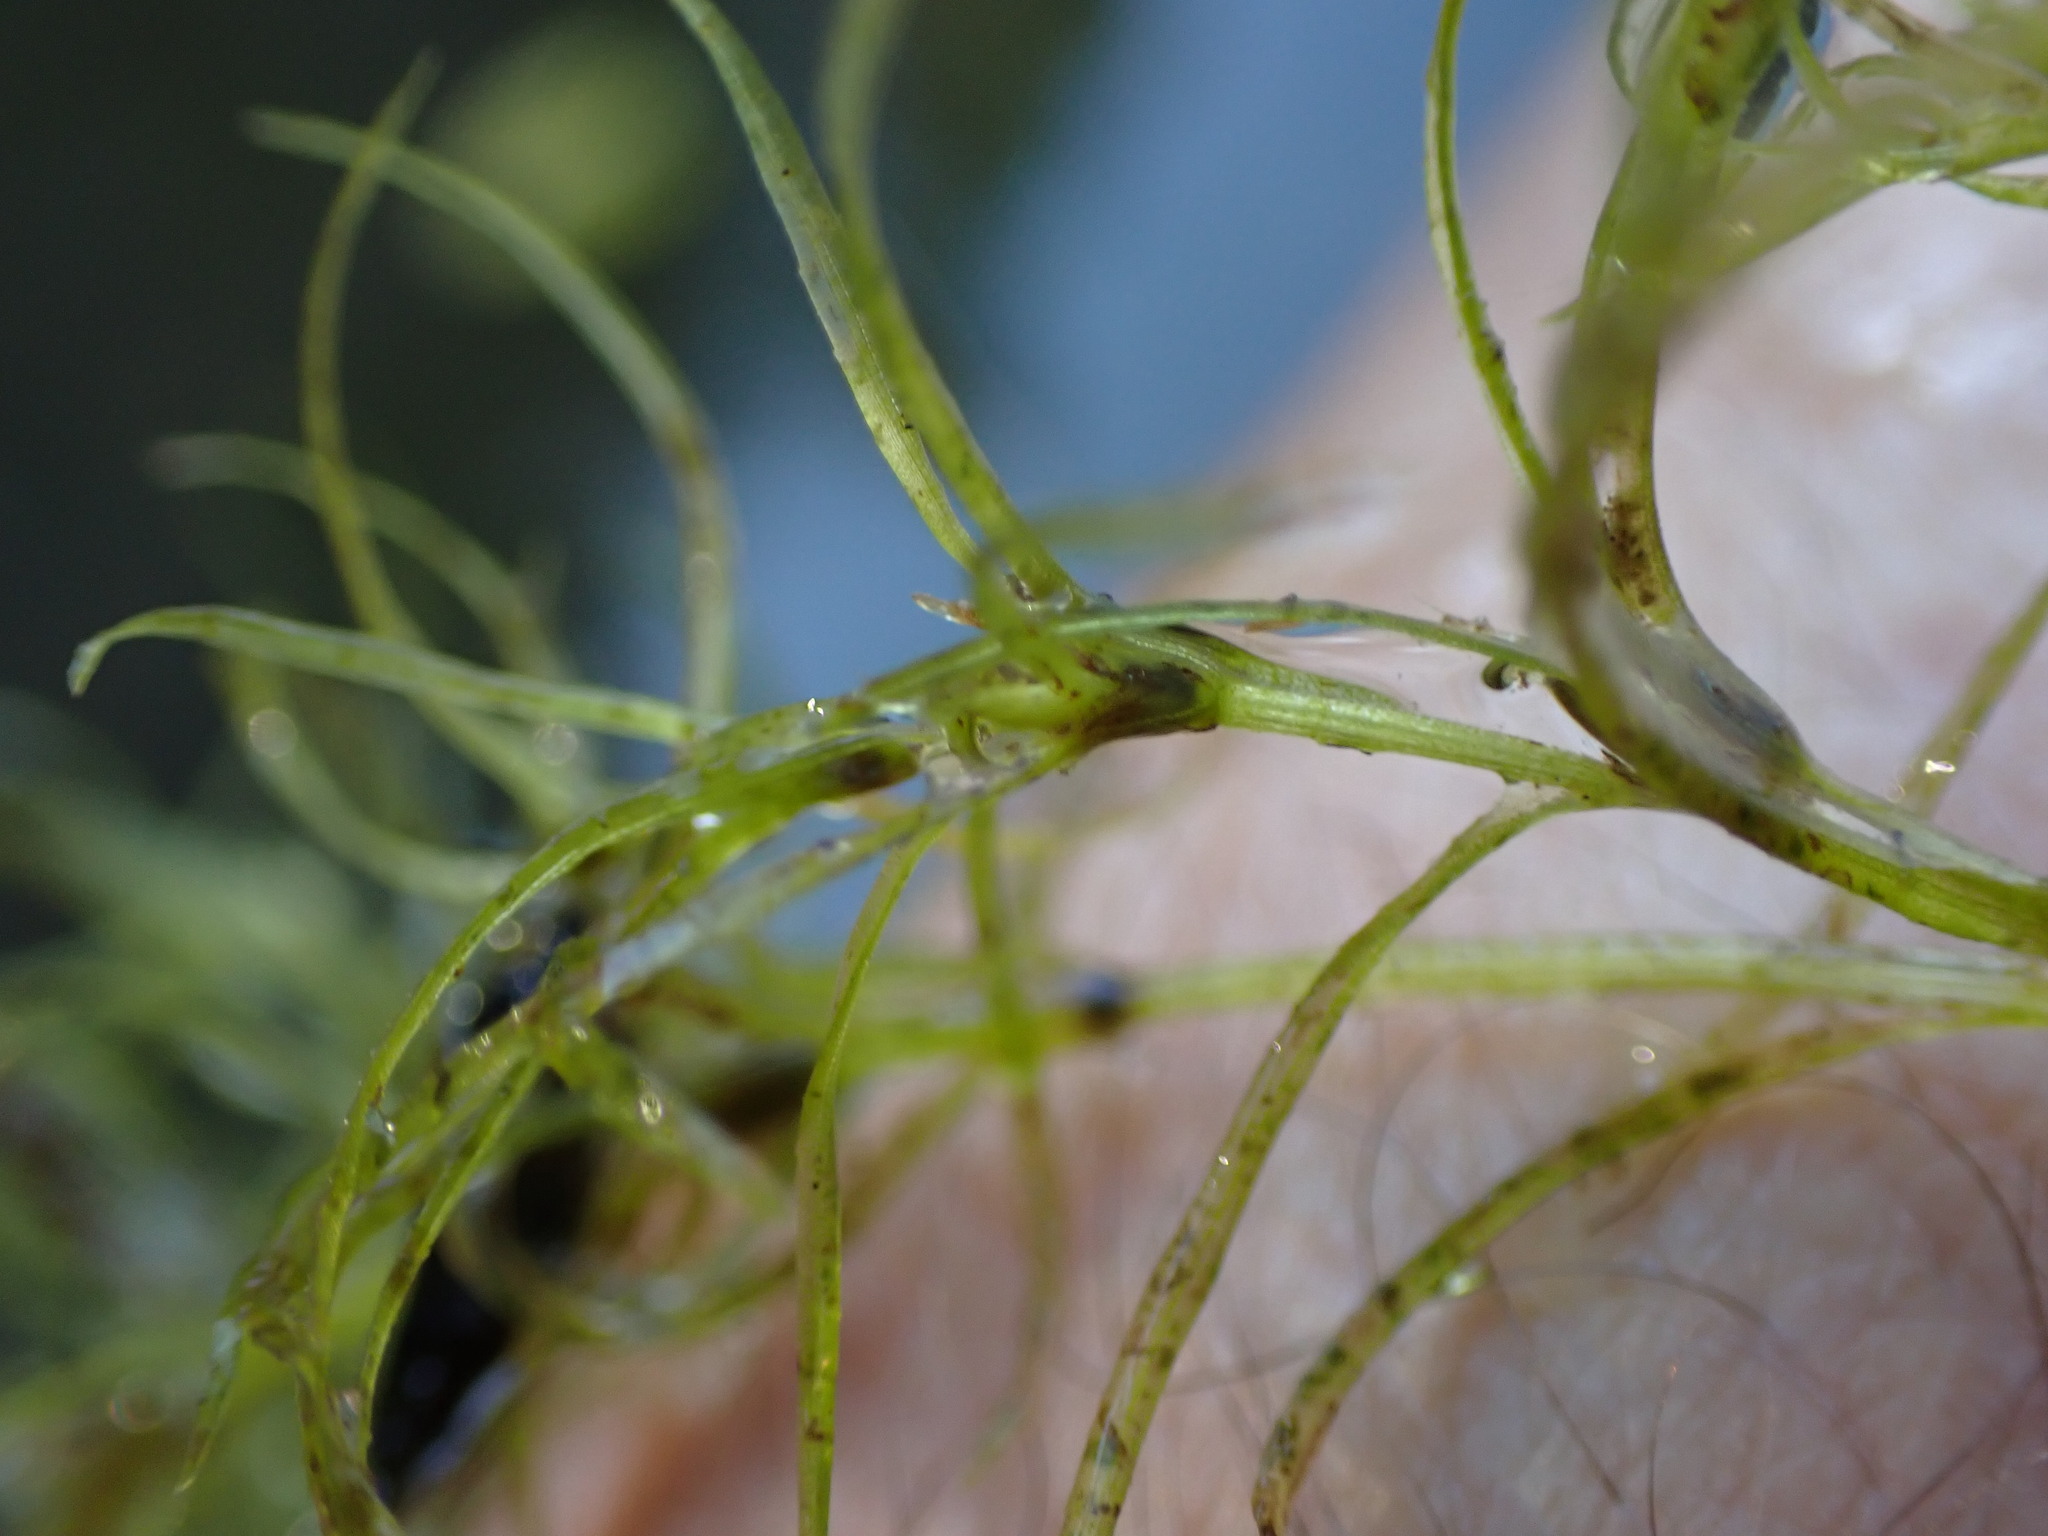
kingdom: Plantae
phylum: Tracheophyta
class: Liliopsida
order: Alismatales
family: Hydrocharitaceae
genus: Najas
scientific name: Najas flexilis
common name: Slender naiad
